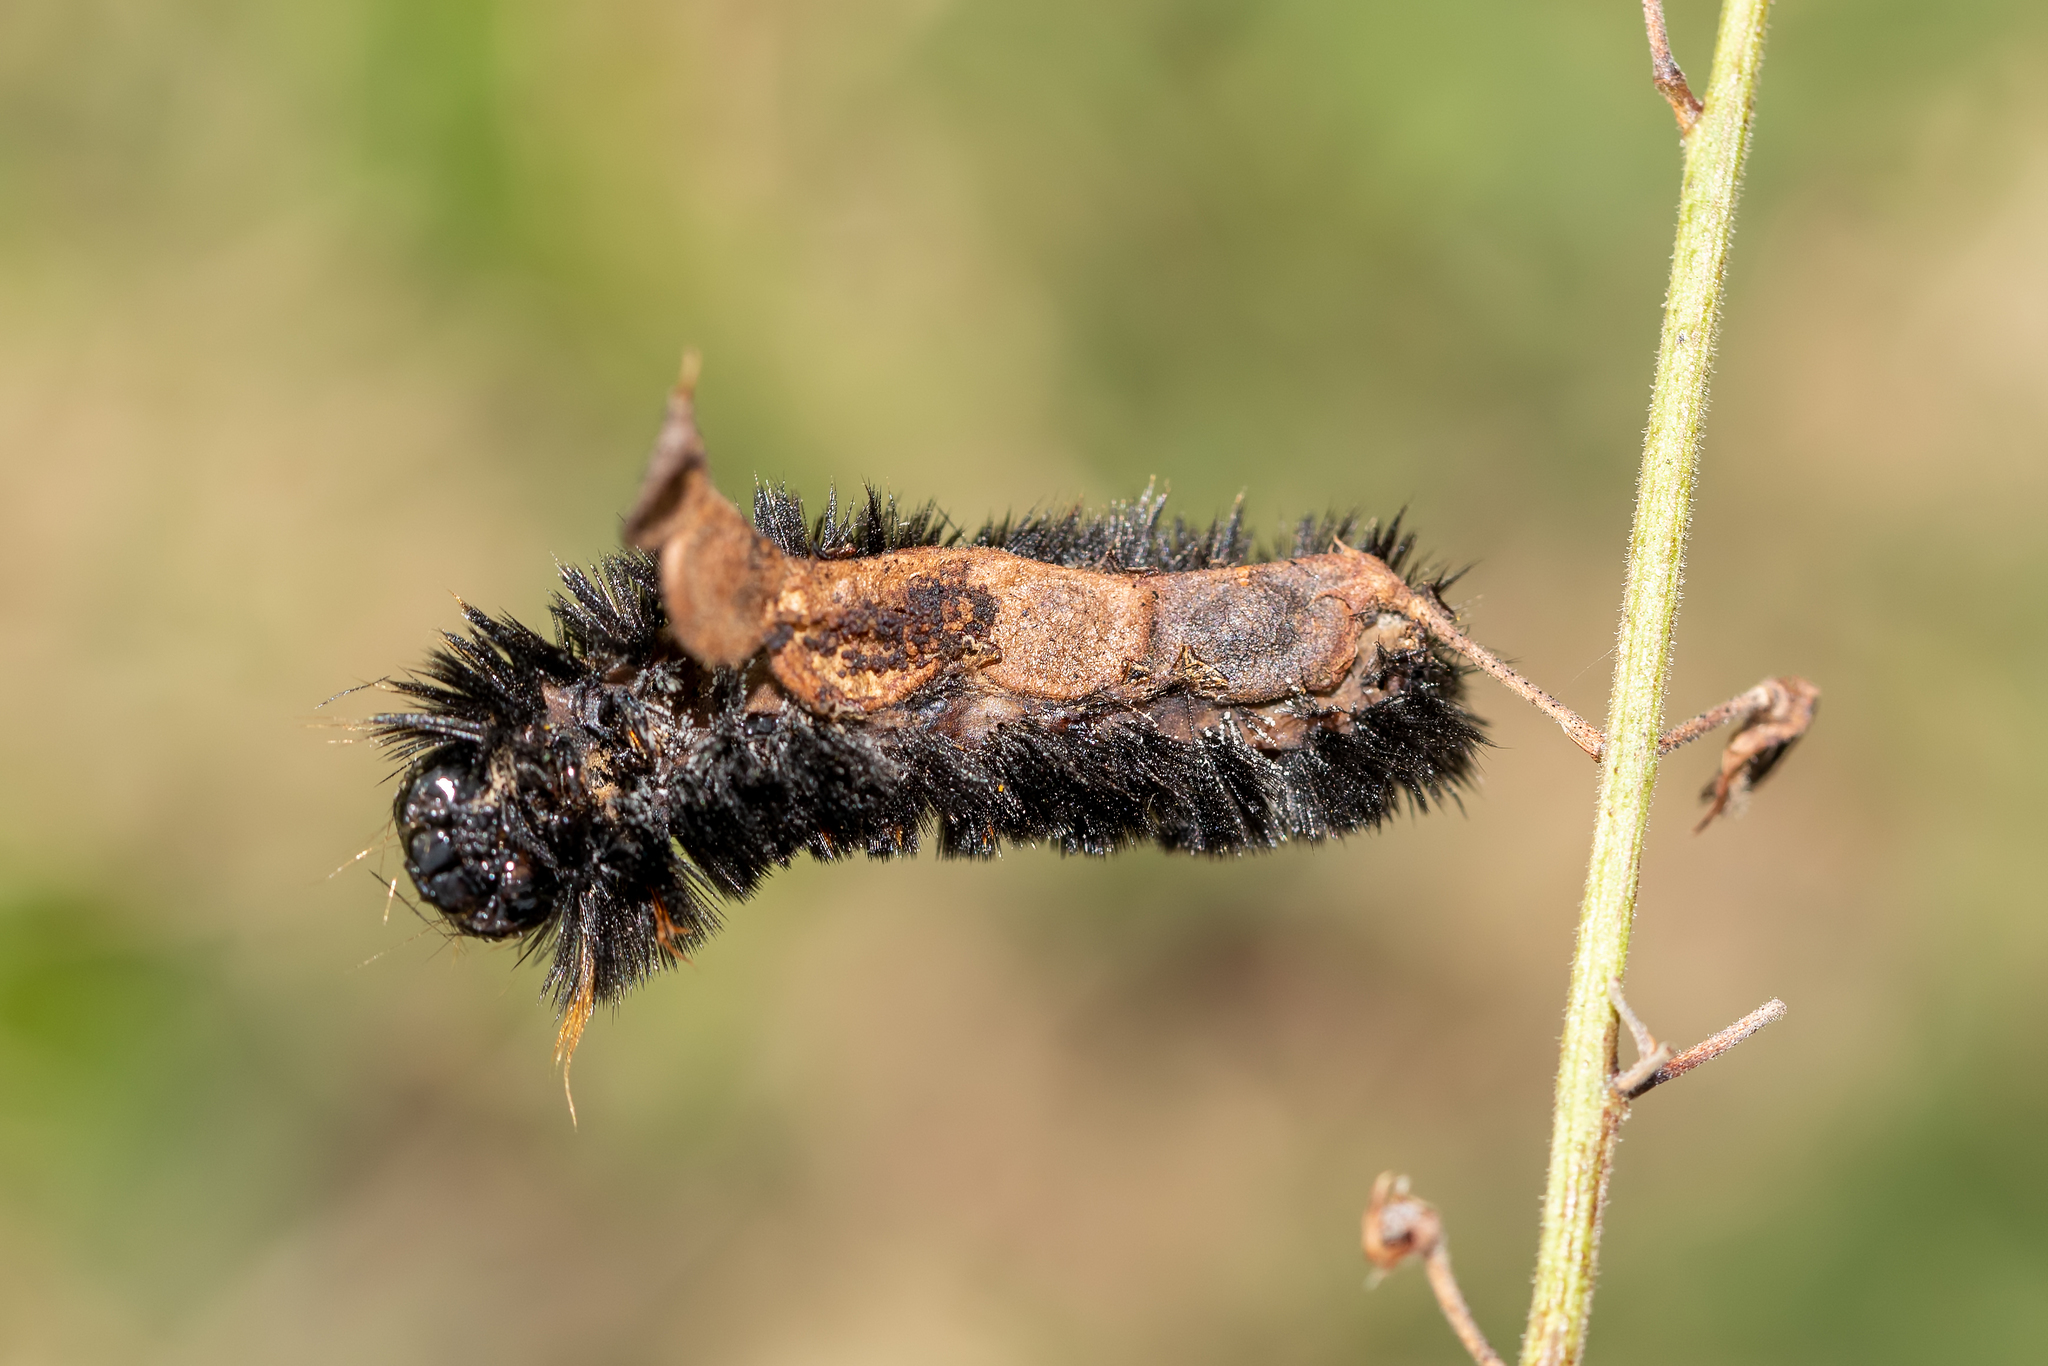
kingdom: Animalia
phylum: Arthropoda
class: Insecta
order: Lepidoptera
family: Erebidae
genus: Spilosoma
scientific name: Spilosoma congrua
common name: Agreeable tiger moth
